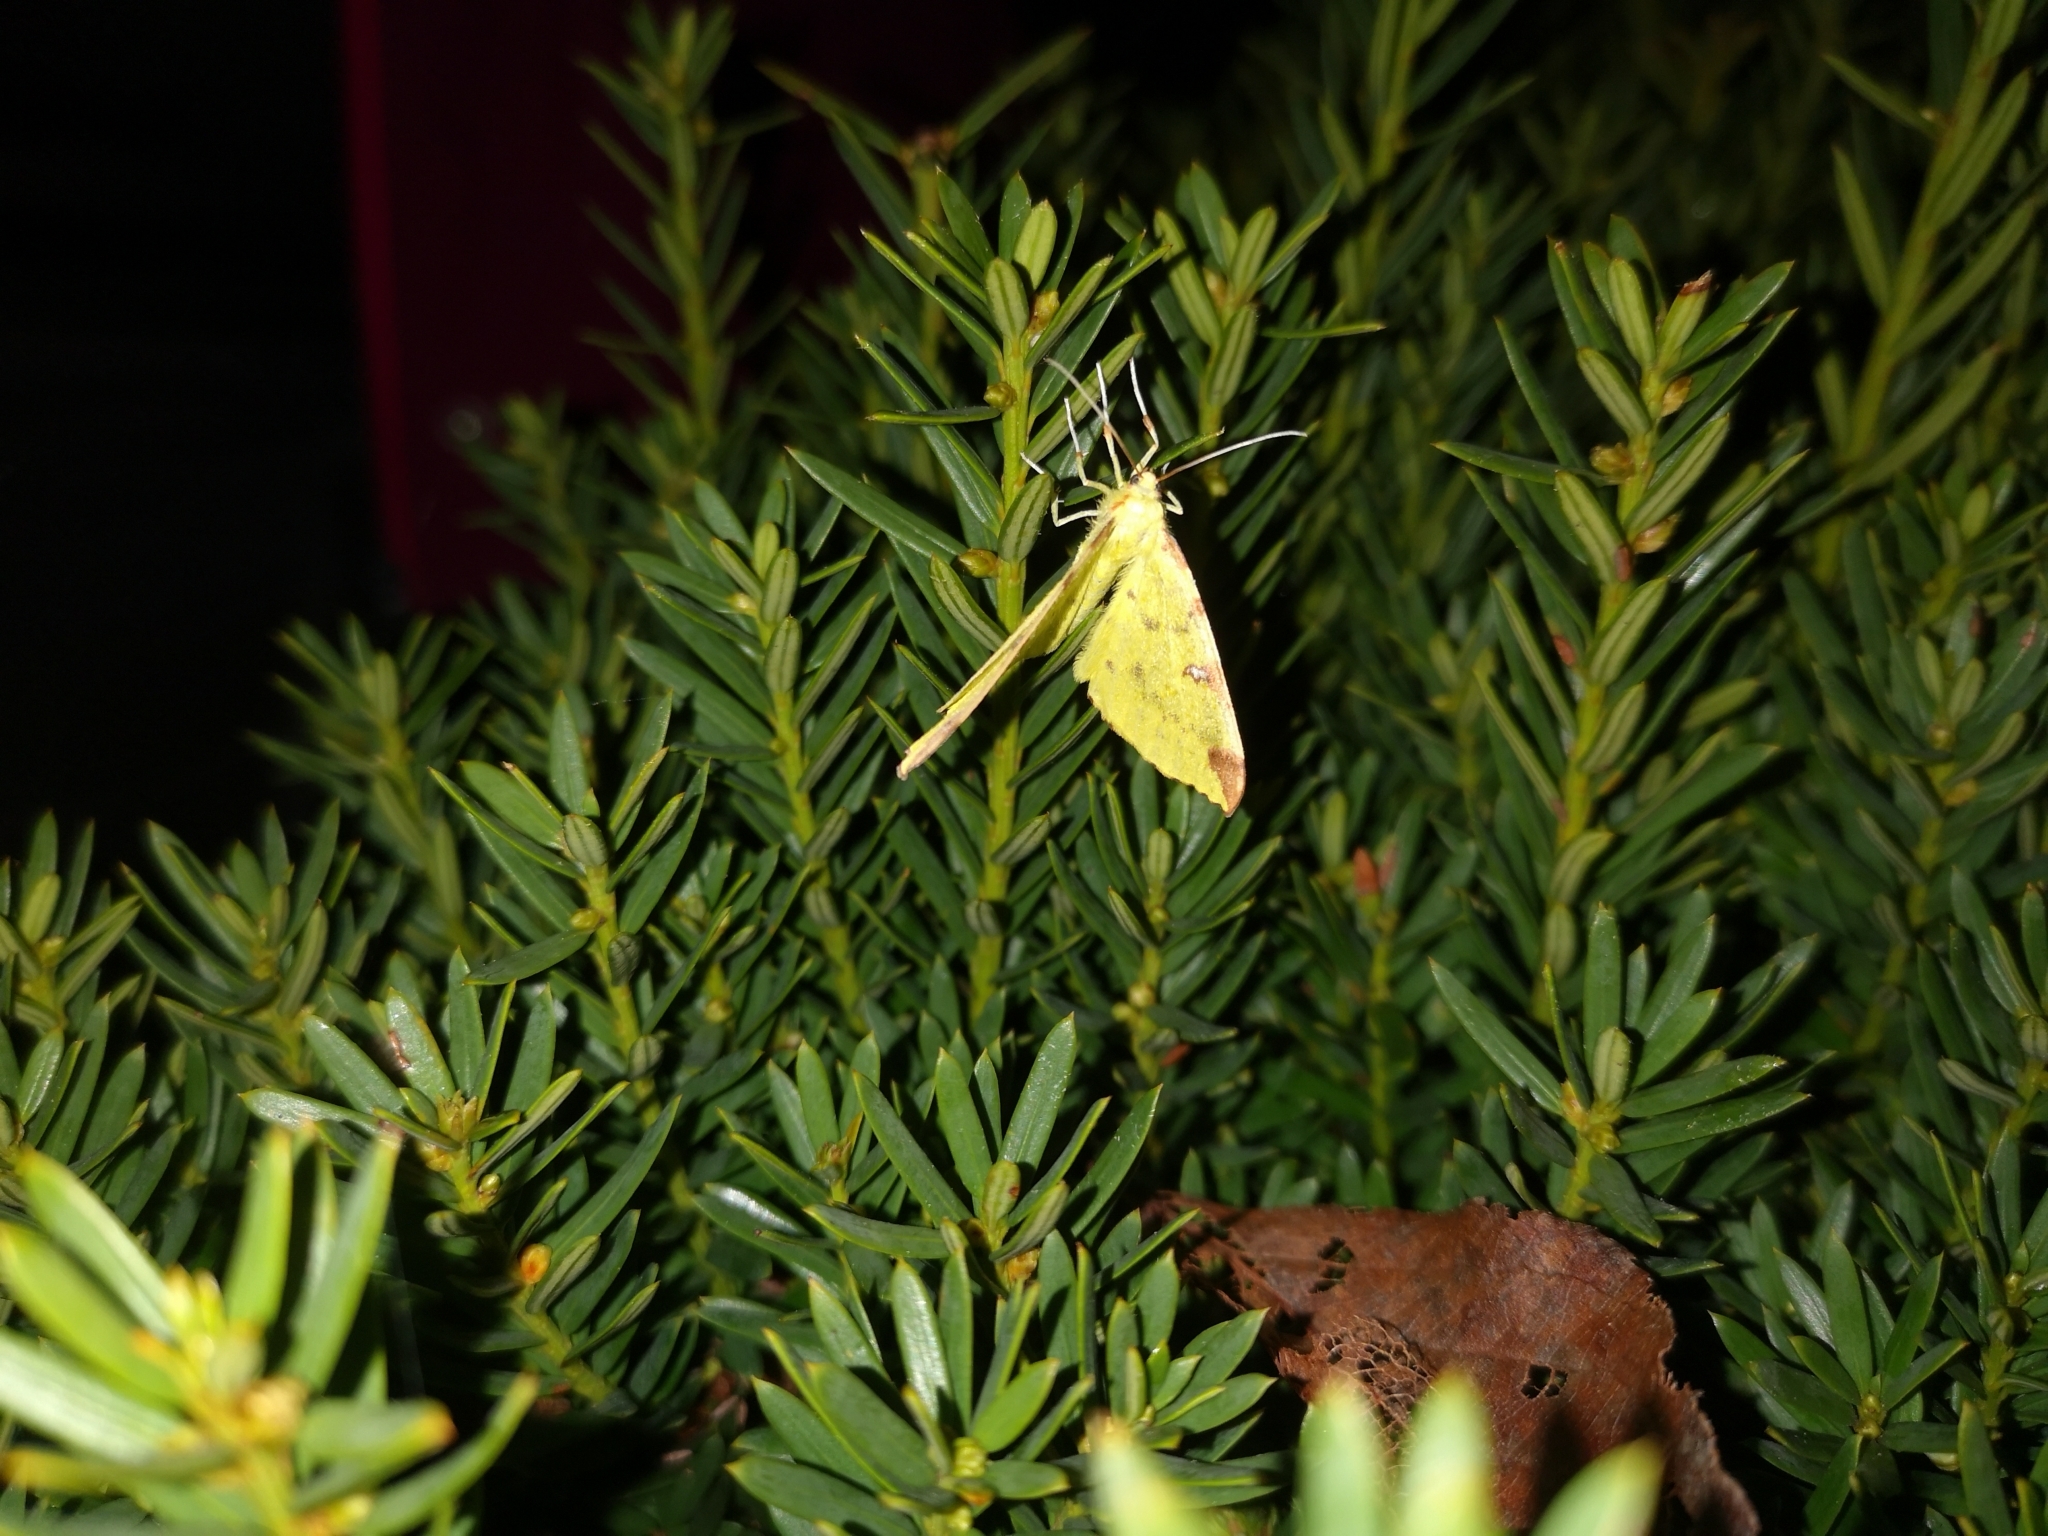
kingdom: Animalia
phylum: Arthropoda
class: Insecta
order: Lepidoptera
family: Geometridae
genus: Opisthograptis
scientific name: Opisthograptis luteolata
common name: Brimstone moth
